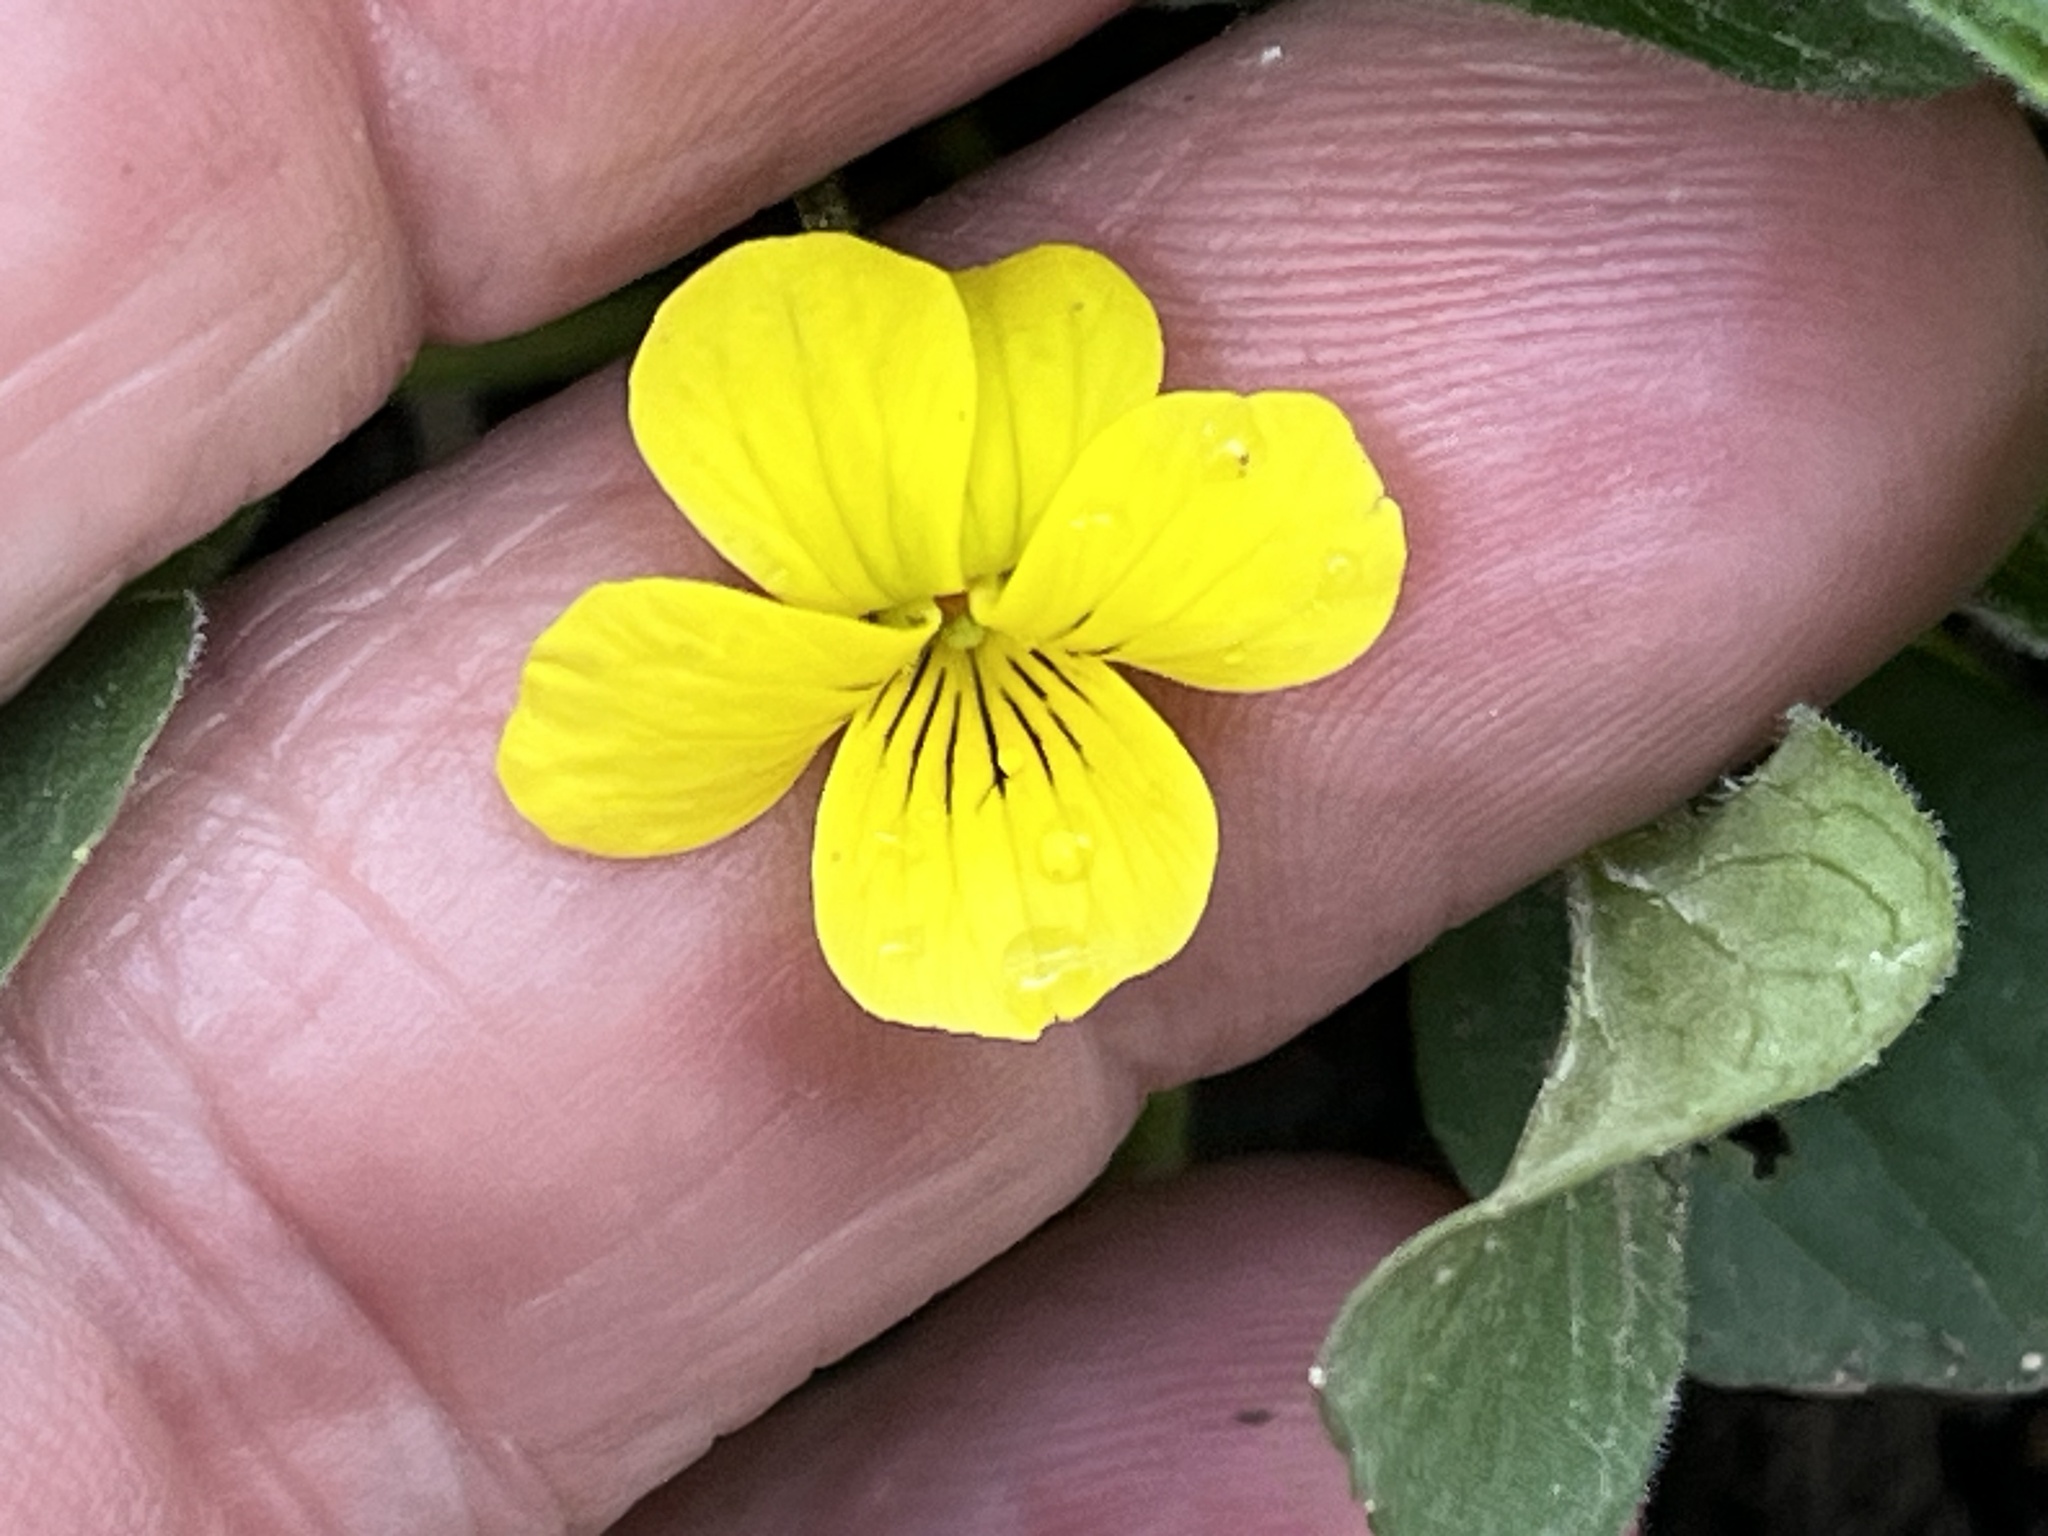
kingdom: Plantae
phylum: Tracheophyta
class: Magnoliopsida
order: Malpighiales
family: Violaceae
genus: Viola
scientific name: Viola praemorsa
